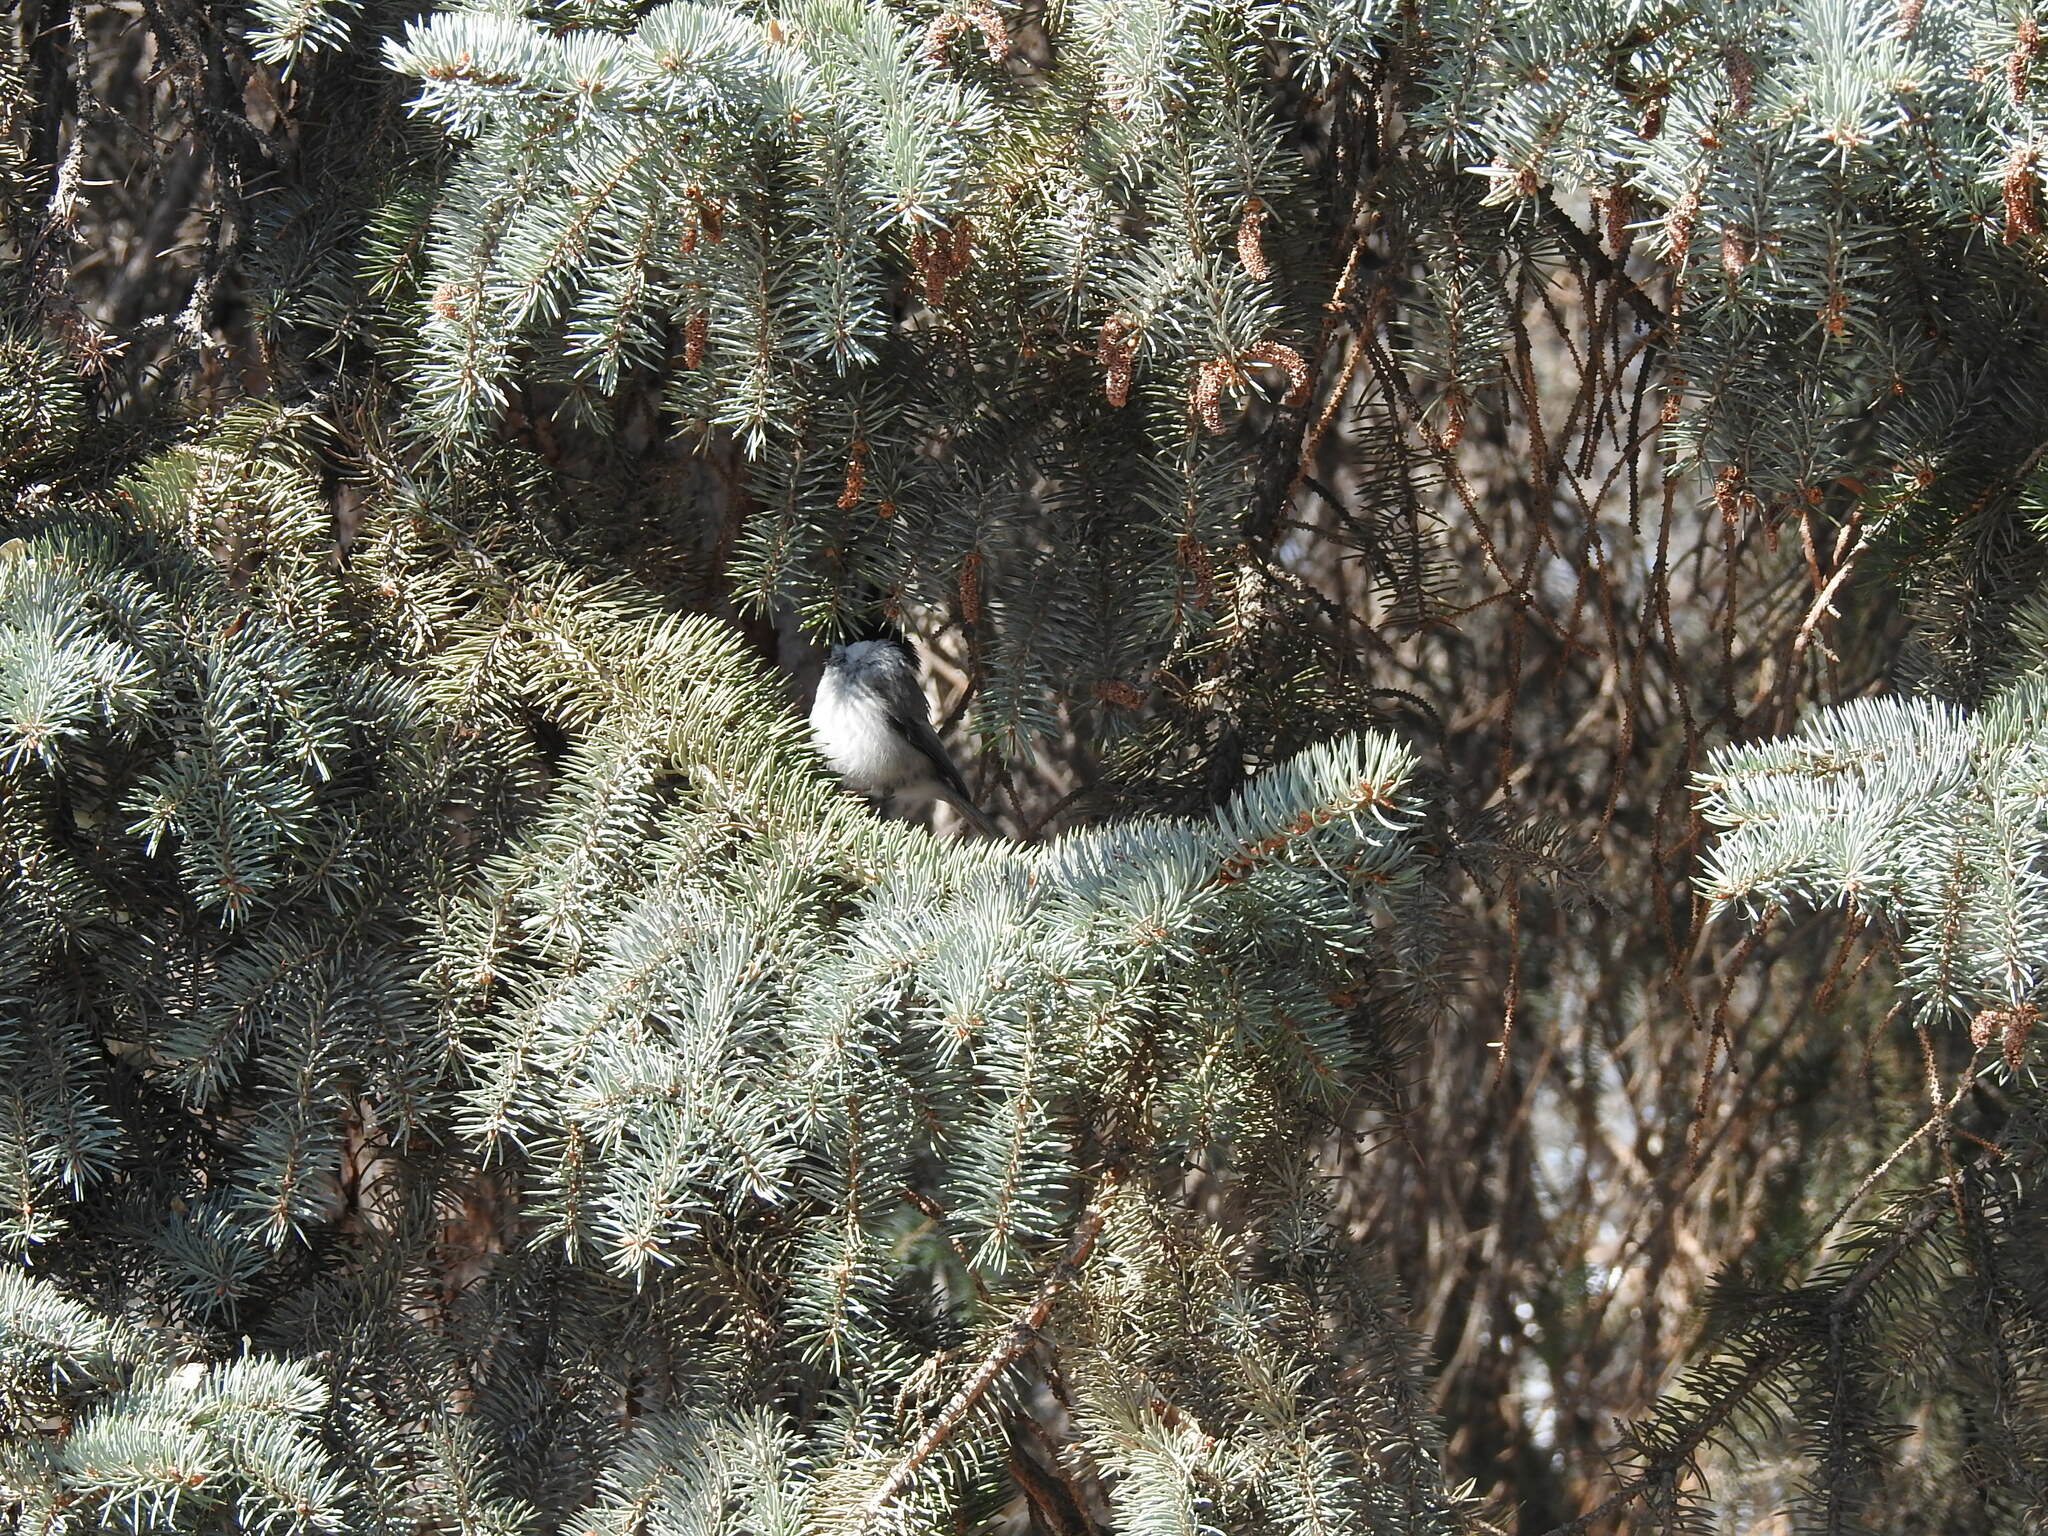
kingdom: Animalia
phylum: Chordata
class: Aves
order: Passeriformes
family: Paridae
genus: Poecile
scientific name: Poecile montanus
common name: Willow tit
